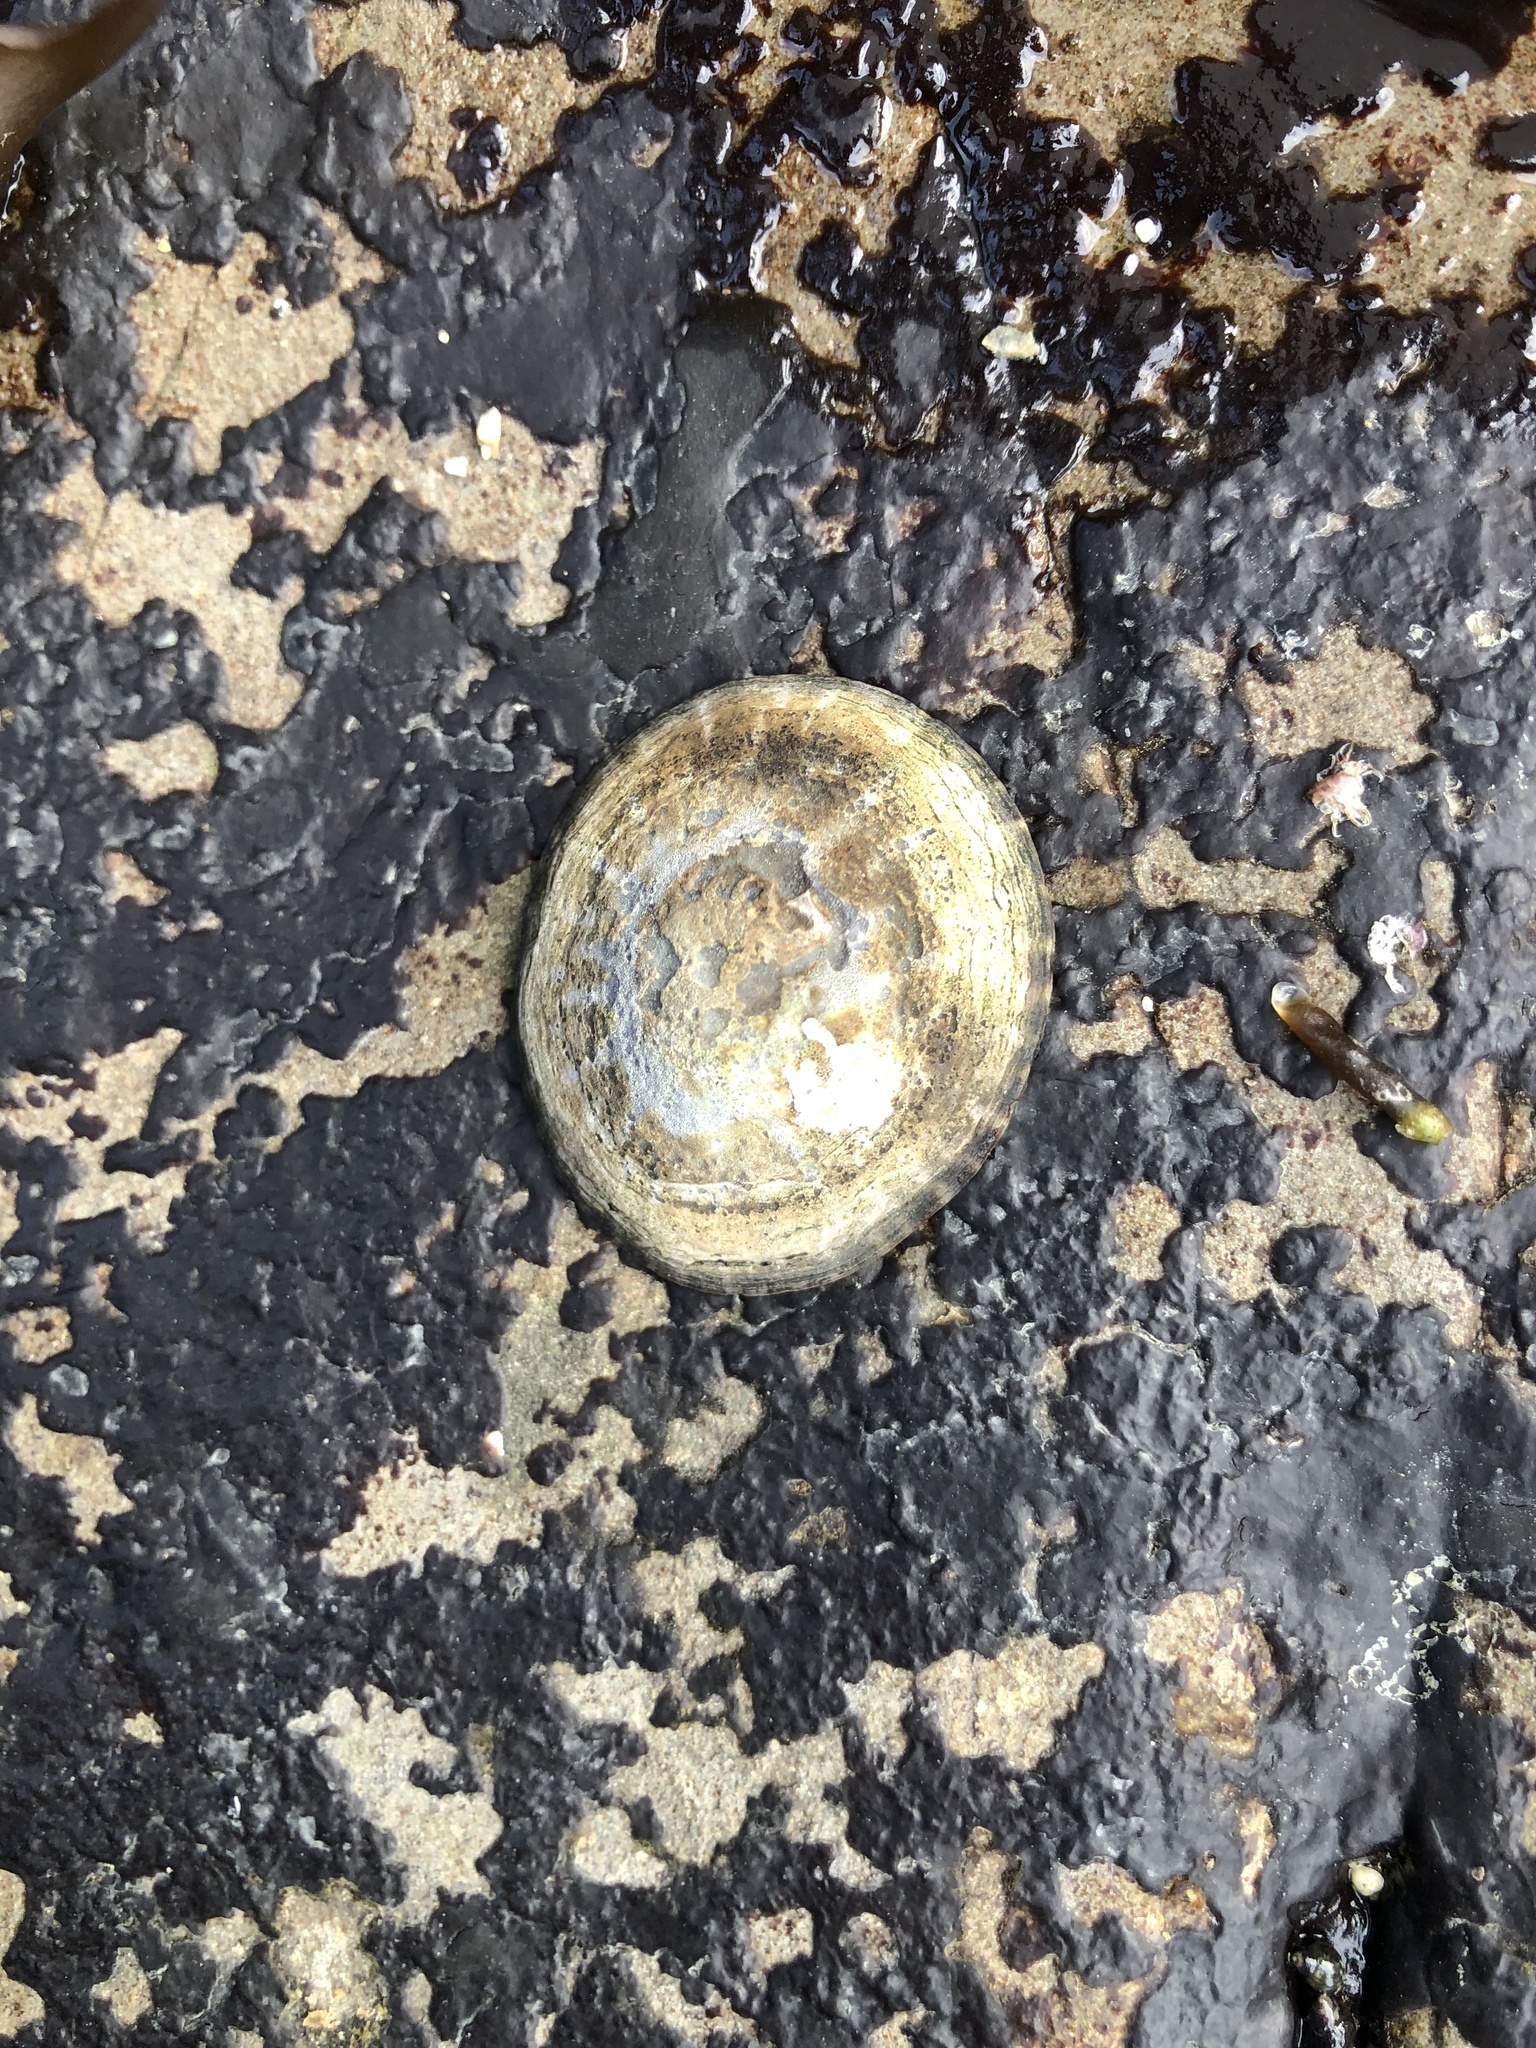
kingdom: Animalia
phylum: Mollusca
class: Gastropoda
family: Lottiidae
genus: Lottia
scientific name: Lottia scutum
